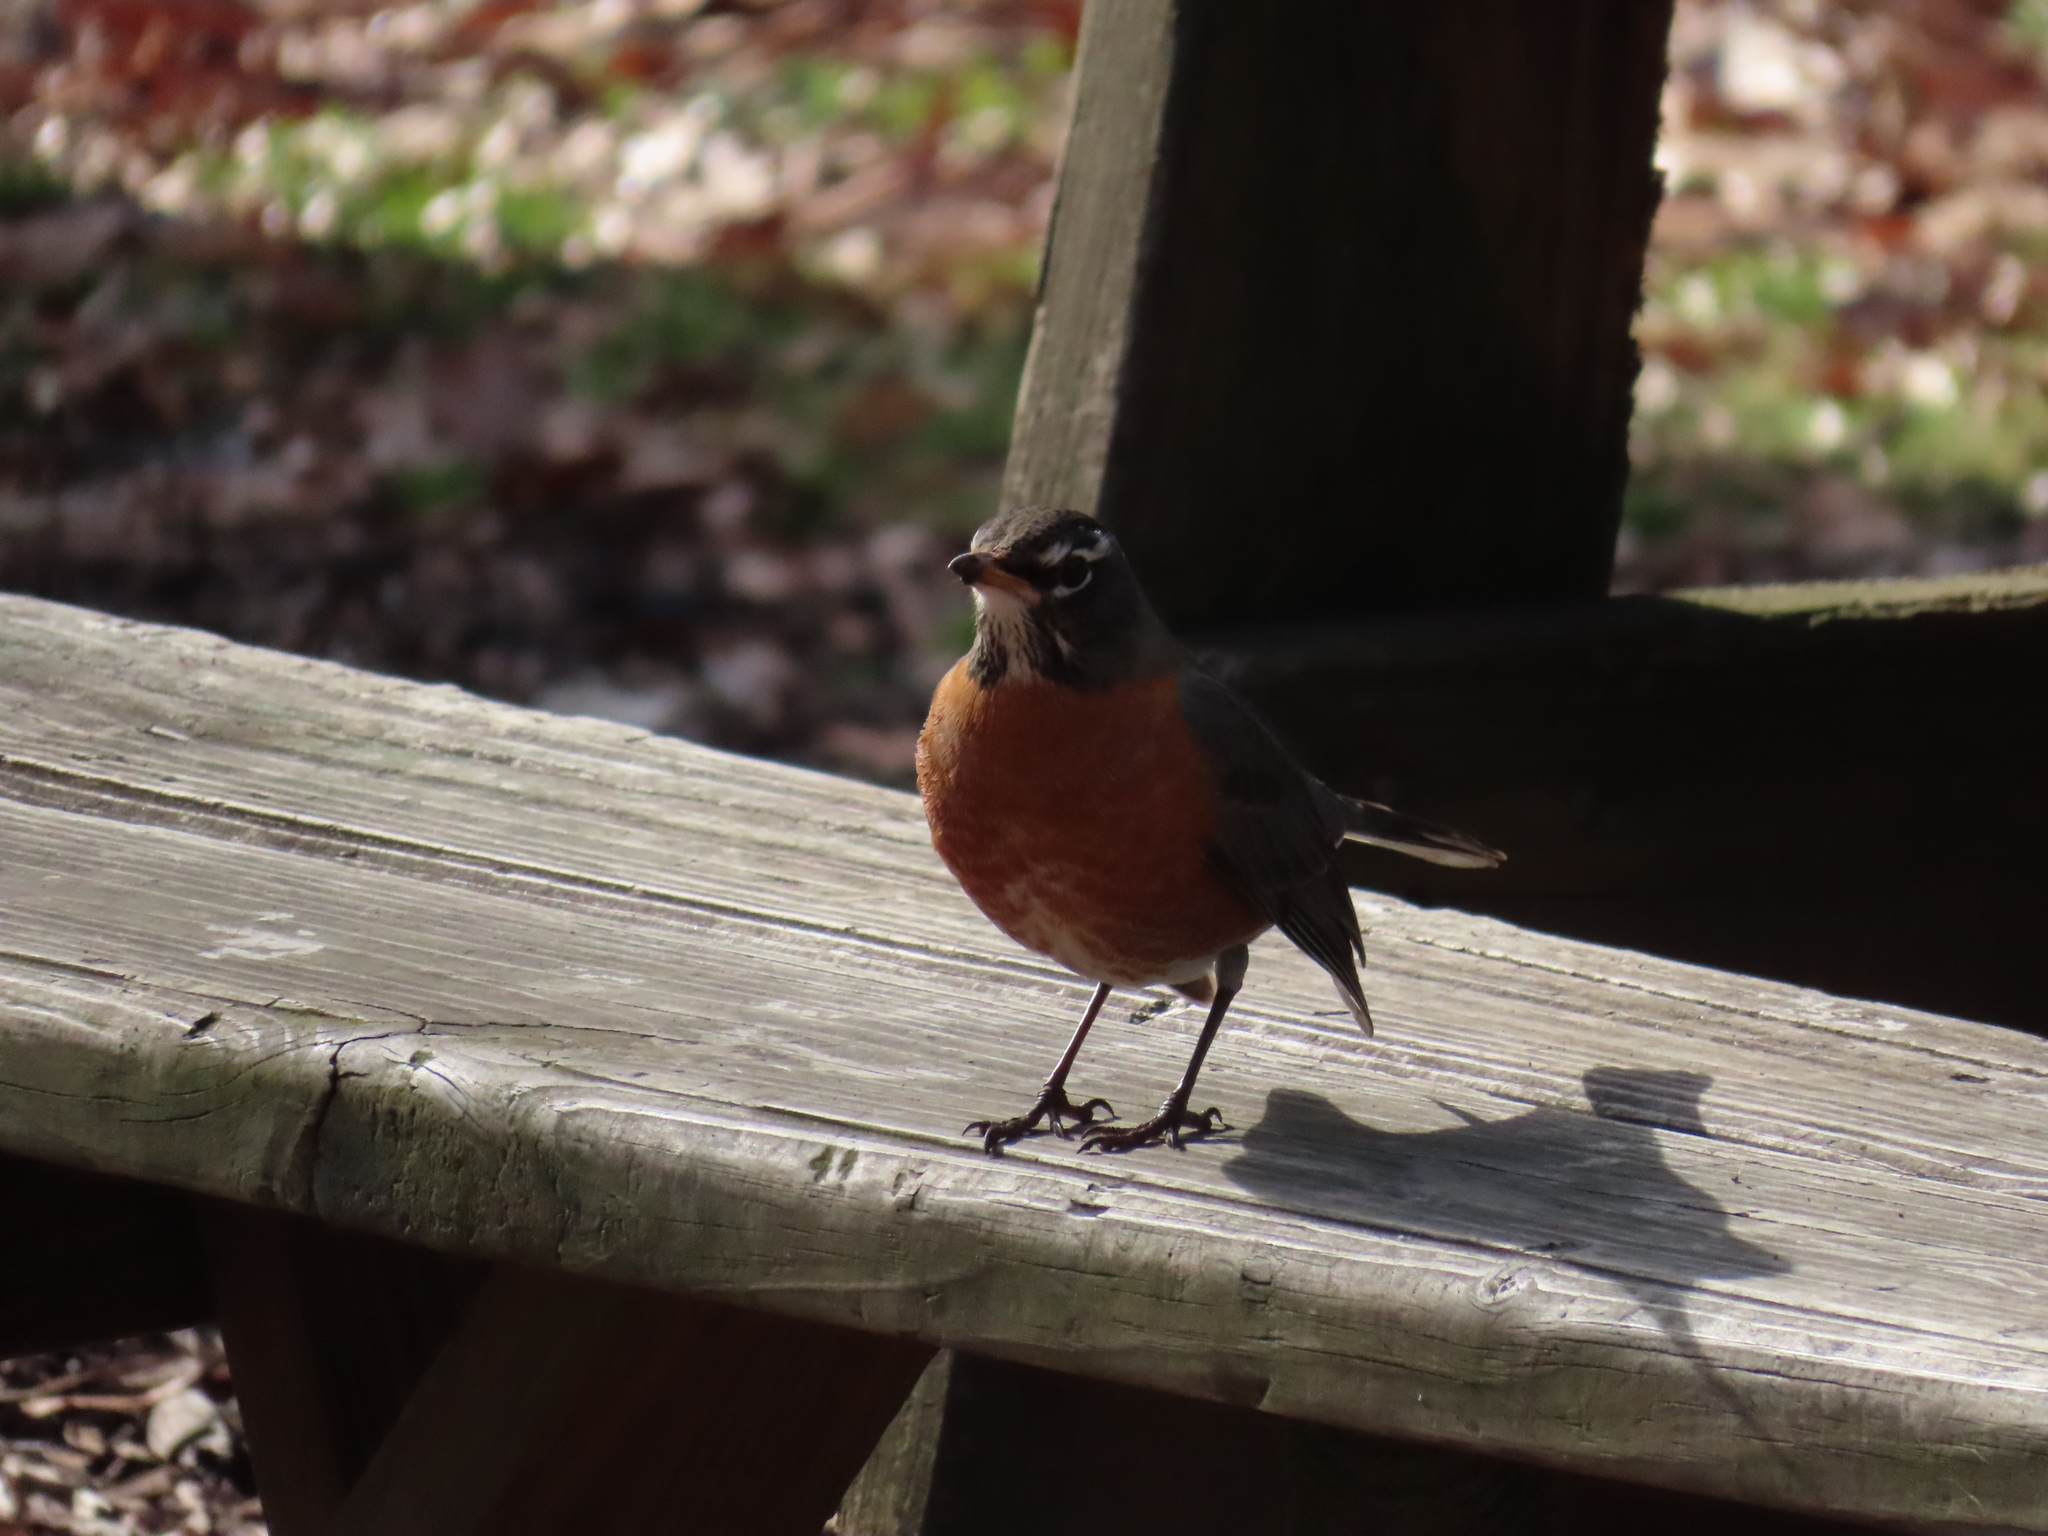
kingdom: Animalia
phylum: Chordata
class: Aves
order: Passeriformes
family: Turdidae
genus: Turdus
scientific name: Turdus migratorius
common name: American robin
